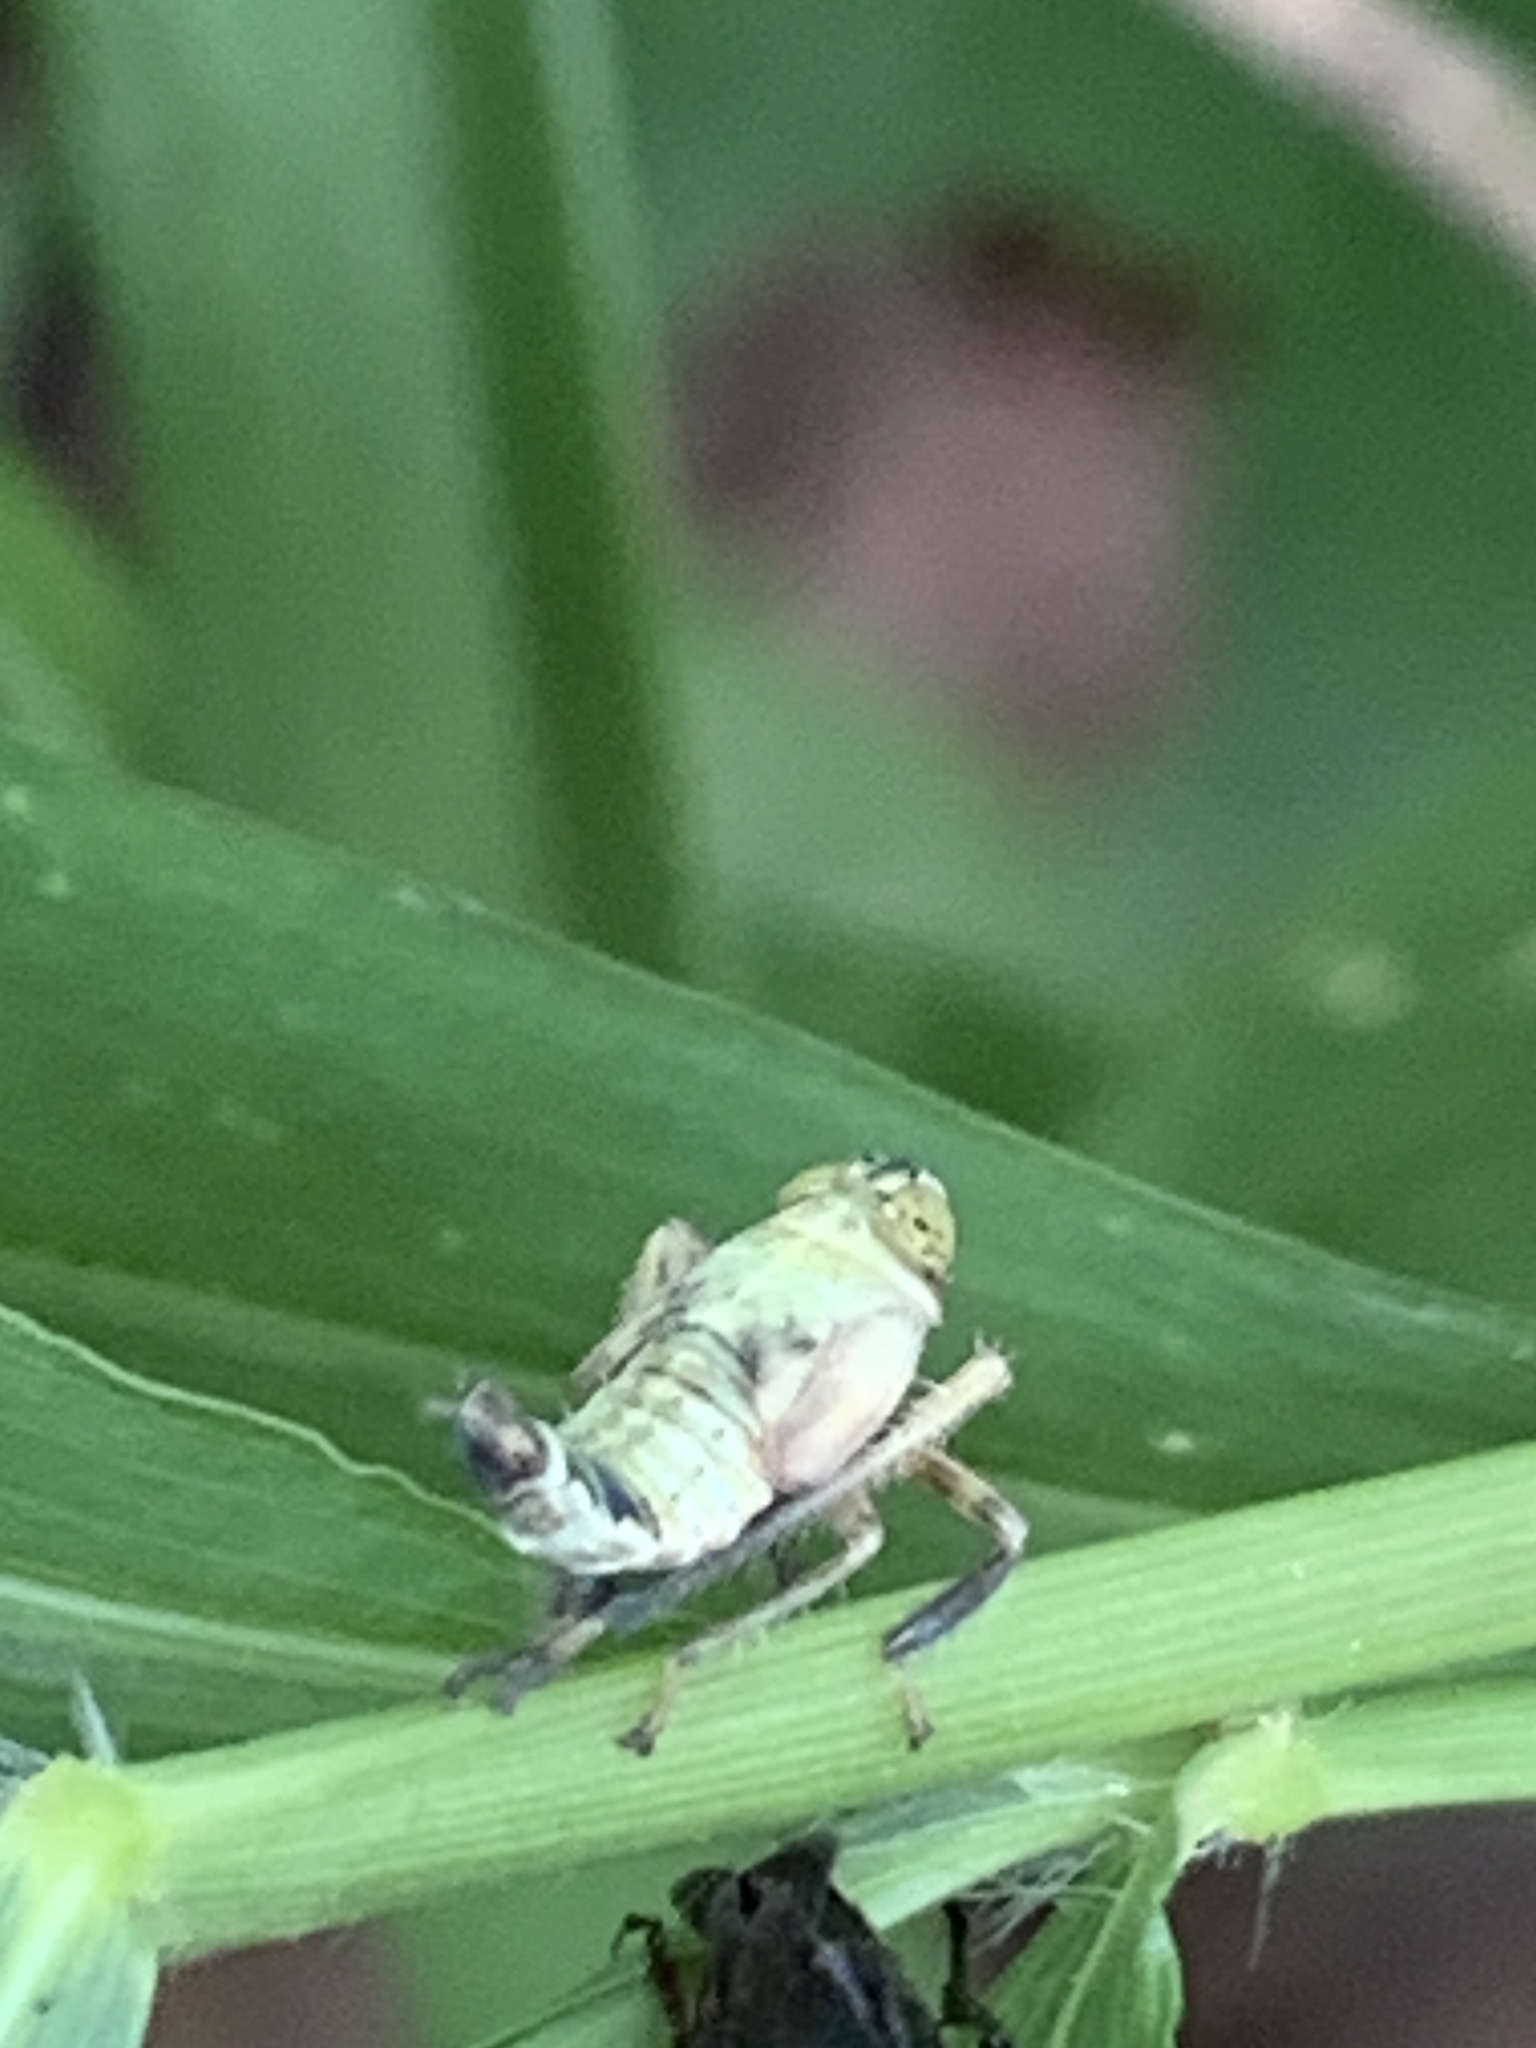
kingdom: Animalia
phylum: Arthropoda
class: Insecta
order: Hemiptera
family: Cicadellidae
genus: Jikradia
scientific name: Jikradia olitoria
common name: Coppery leafhopper
